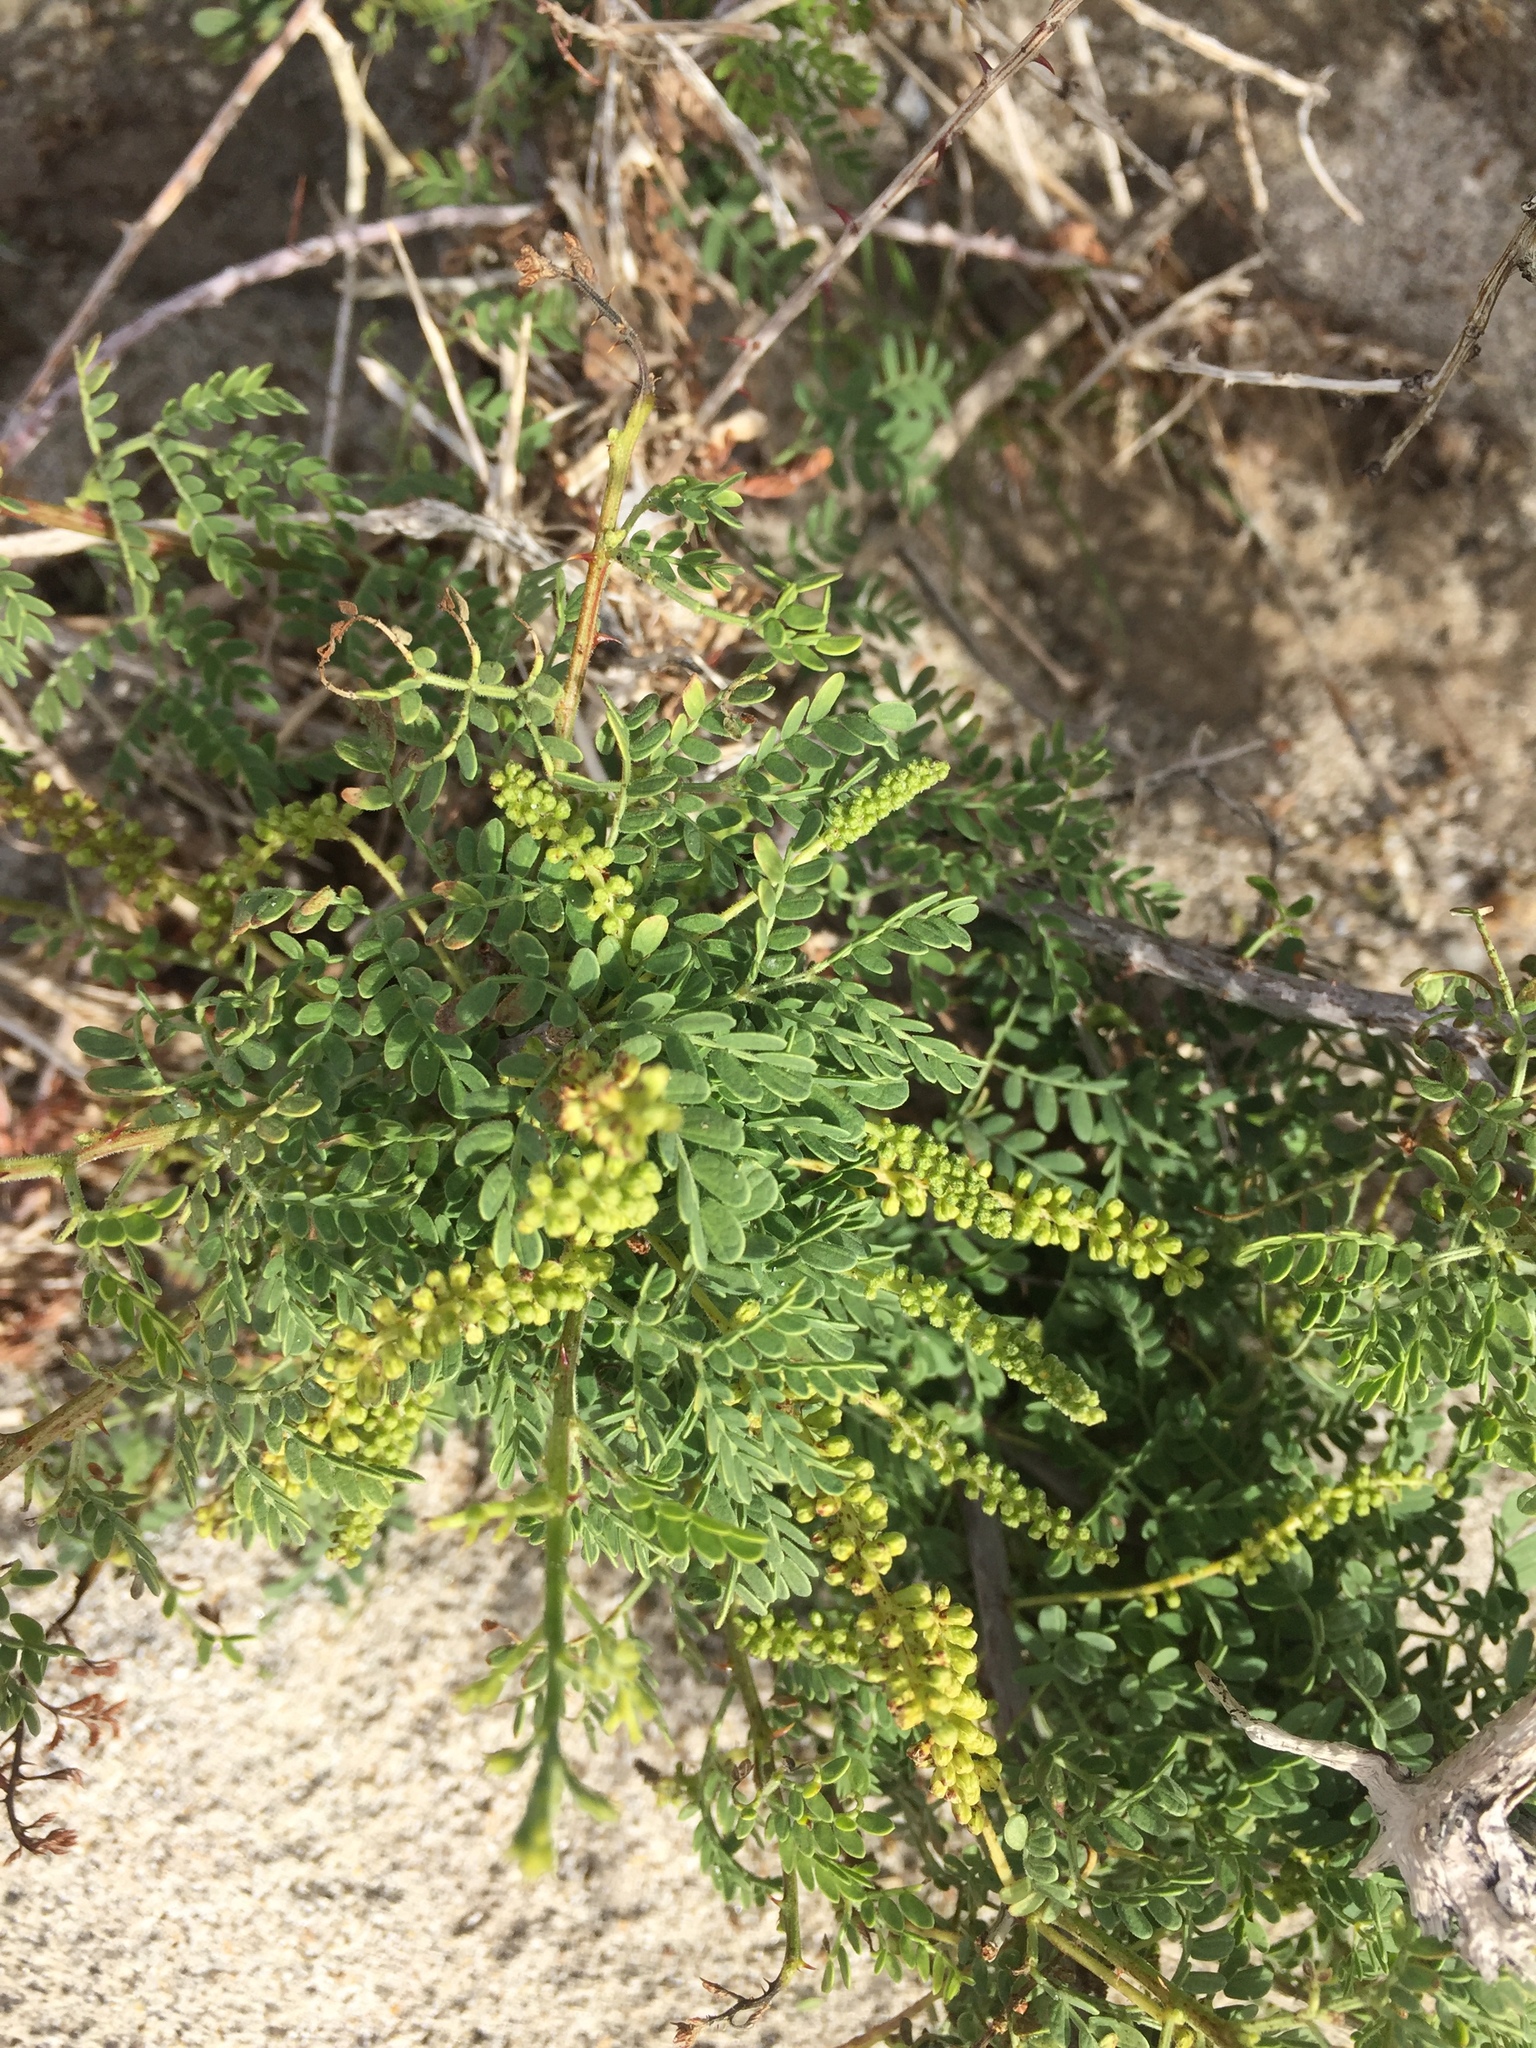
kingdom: Plantae
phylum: Tracheophyta
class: Magnoliopsida
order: Fabales
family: Fabaceae
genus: Senegalia
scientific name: Senegalia greggii
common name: Texas-mimosa
